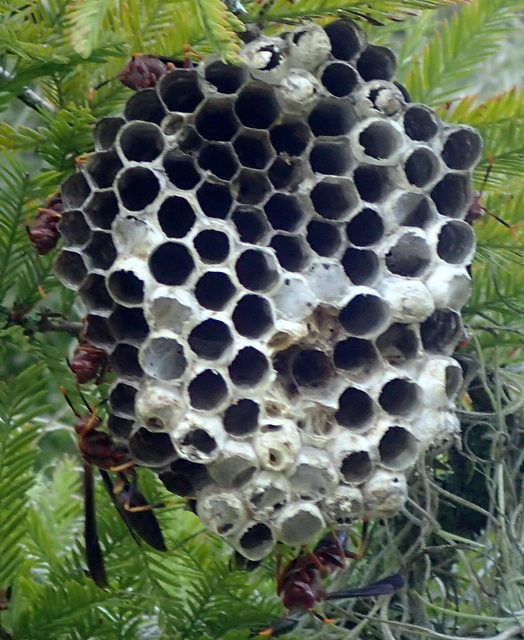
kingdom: Animalia
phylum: Arthropoda
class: Insecta
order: Hymenoptera
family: Eumenidae
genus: Polistes
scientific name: Polistes annularis
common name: Ringed paper wasp
